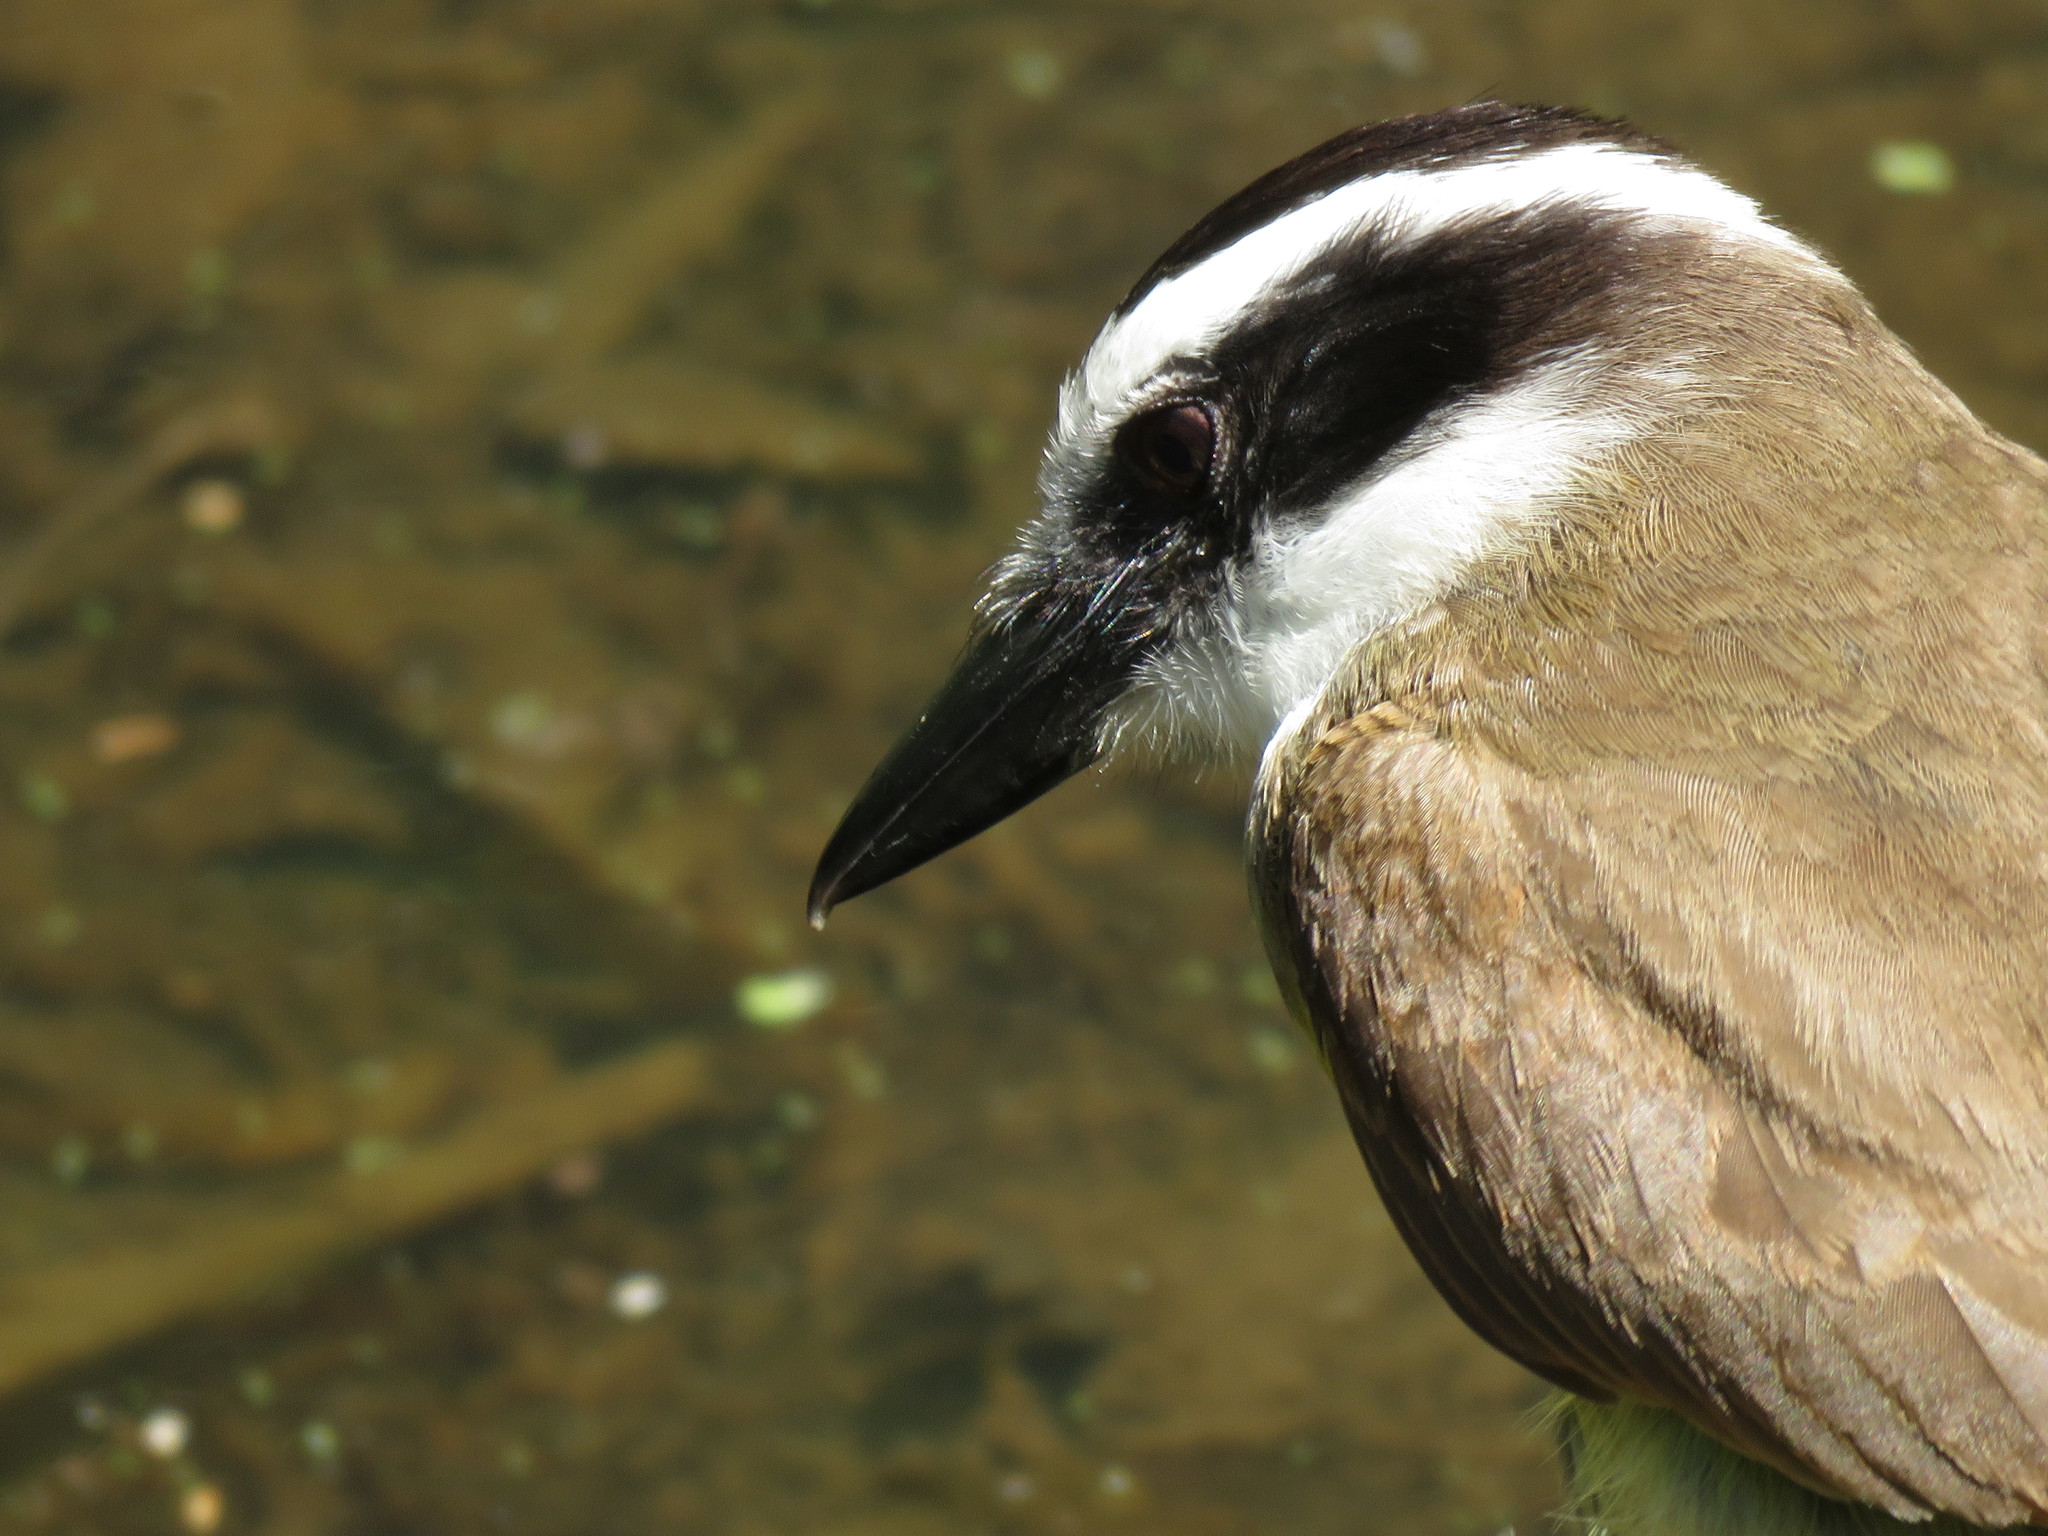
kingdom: Animalia
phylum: Chordata
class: Aves
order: Passeriformes
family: Tyrannidae
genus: Pitangus
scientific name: Pitangus sulphuratus
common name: Great kiskadee
